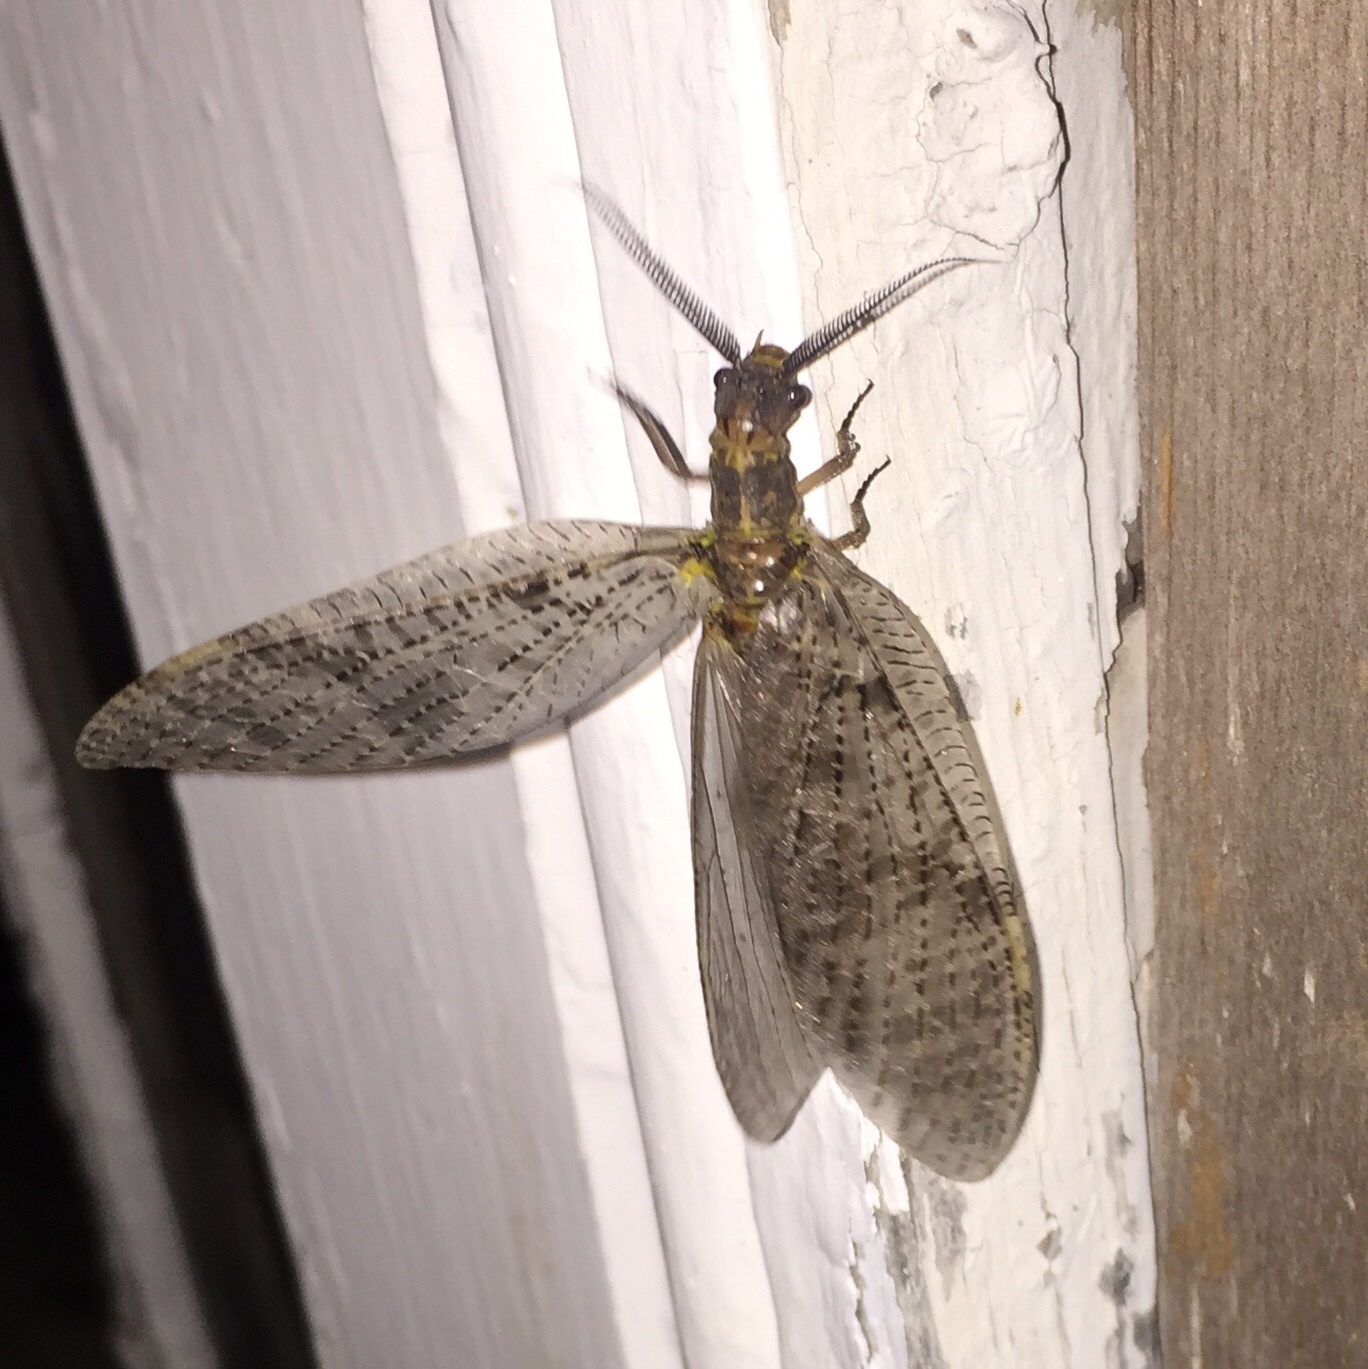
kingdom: Animalia
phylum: Arthropoda
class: Insecta
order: Megaloptera
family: Corydalidae
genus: Chauliodes
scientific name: Chauliodes pectinicornis
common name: Summer fishfly
